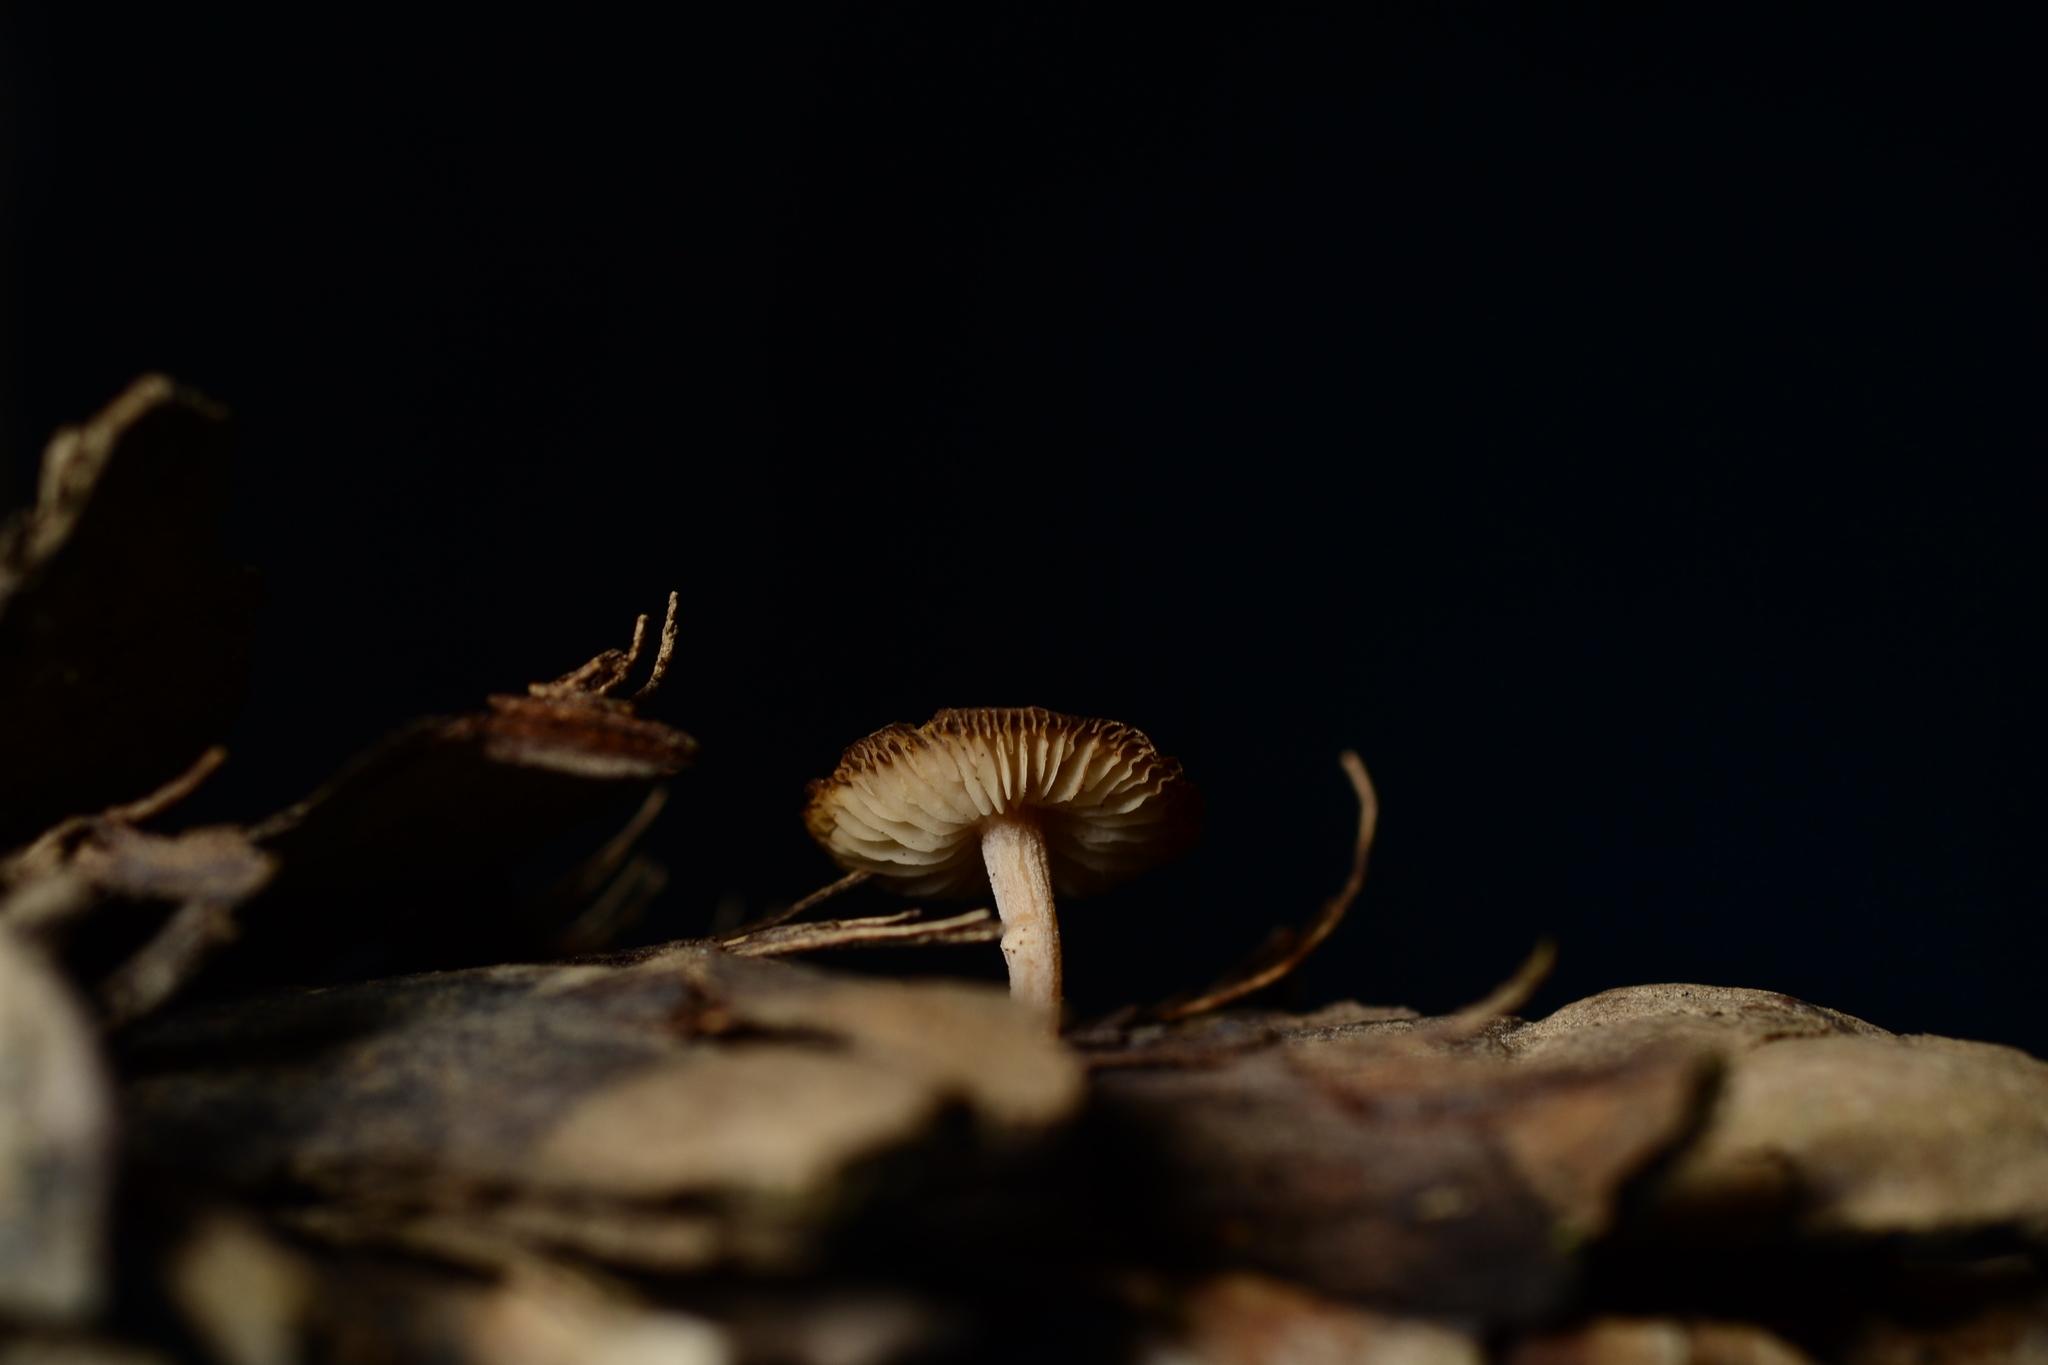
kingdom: Fungi
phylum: Basidiomycota
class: Agaricomycetes
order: Agaricales
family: Marasmiaceae
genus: Baeospora
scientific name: Baeospora myosura
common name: Conifercone cap
